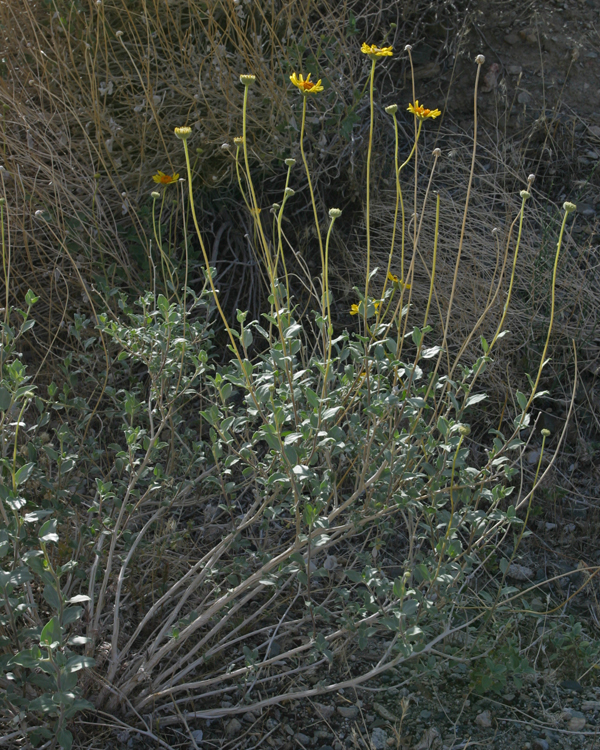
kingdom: Plantae
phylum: Tracheophyta
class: Magnoliopsida
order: Asterales
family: Asteraceae
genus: Encelia
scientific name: Encelia actoni
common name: Acton encelia
